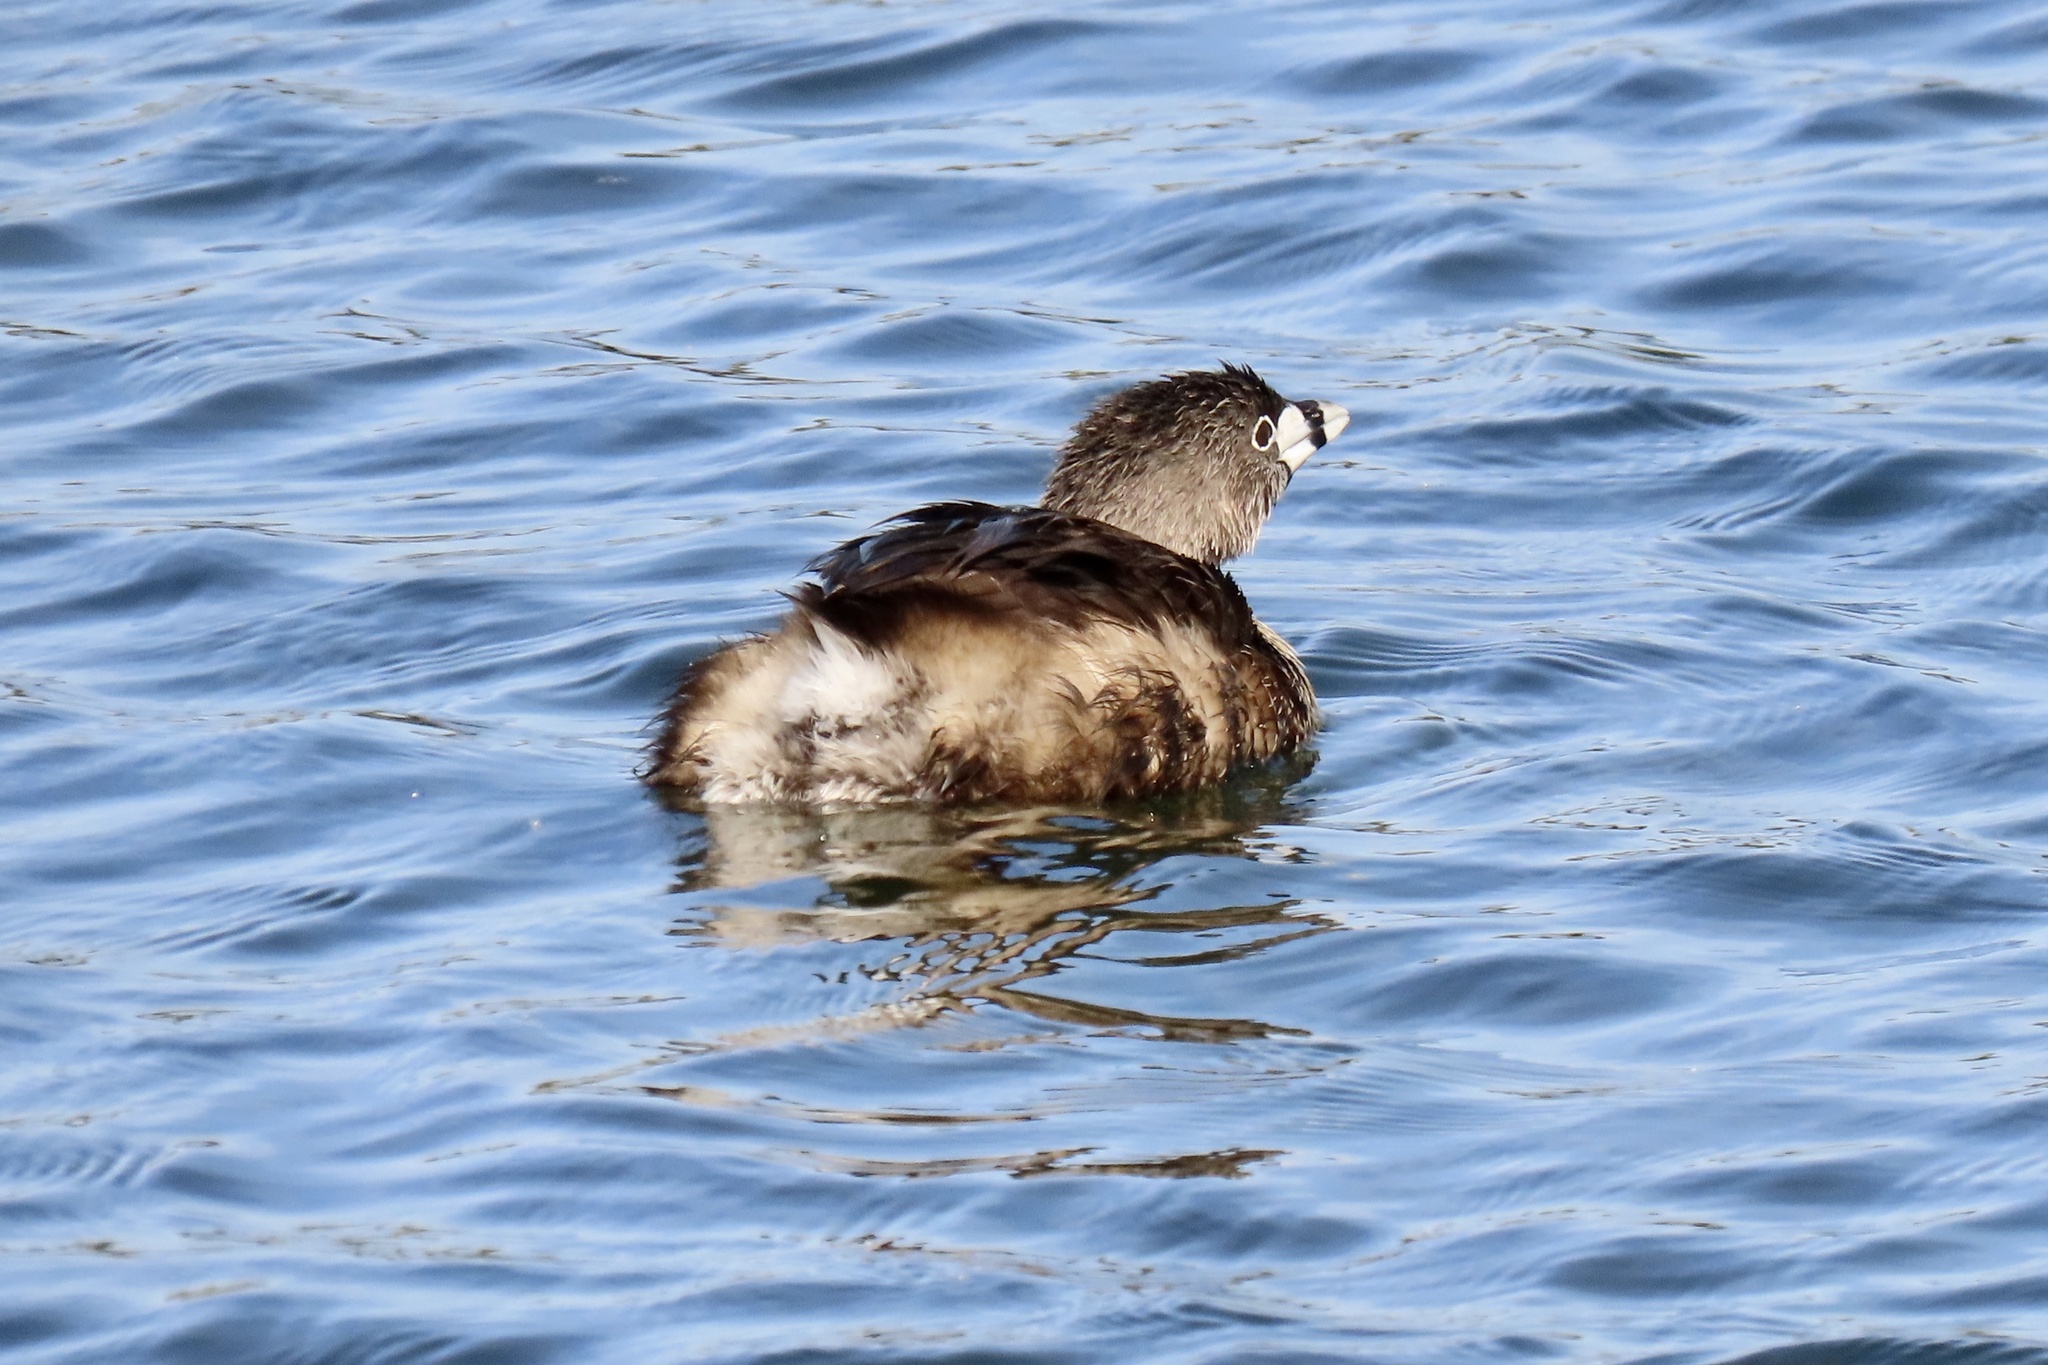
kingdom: Animalia
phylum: Chordata
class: Aves
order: Podicipediformes
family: Podicipedidae
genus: Podilymbus
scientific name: Podilymbus podiceps
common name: Pied-billed grebe
